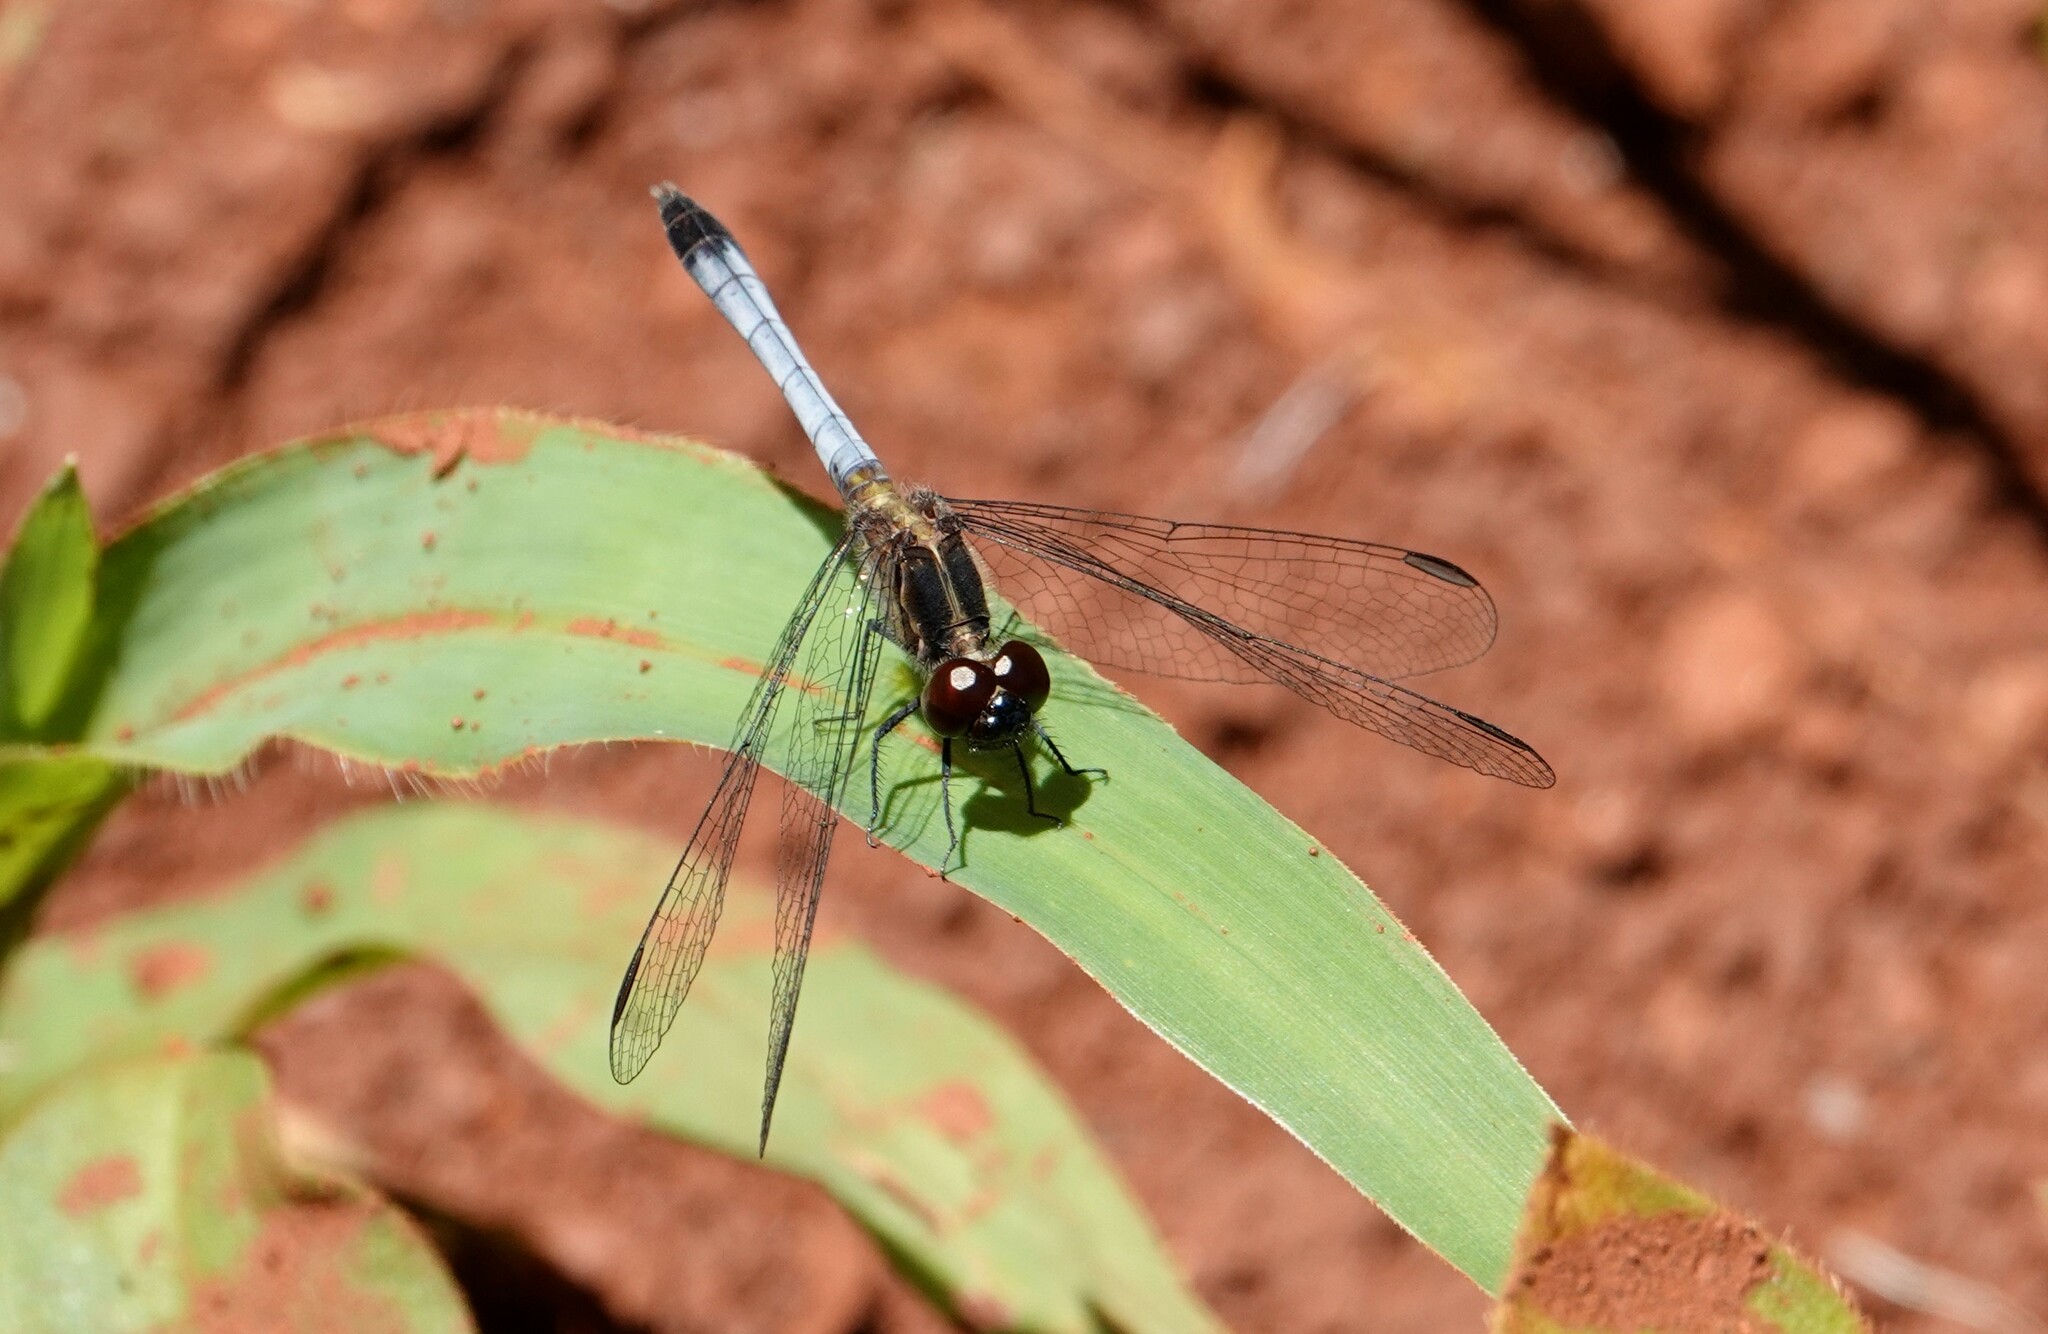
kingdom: Animalia
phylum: Arthropoda
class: Insecta
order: Odonata
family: Libellulidae
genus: Erythrodiplax
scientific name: Erythrodiplax paraguayensis
